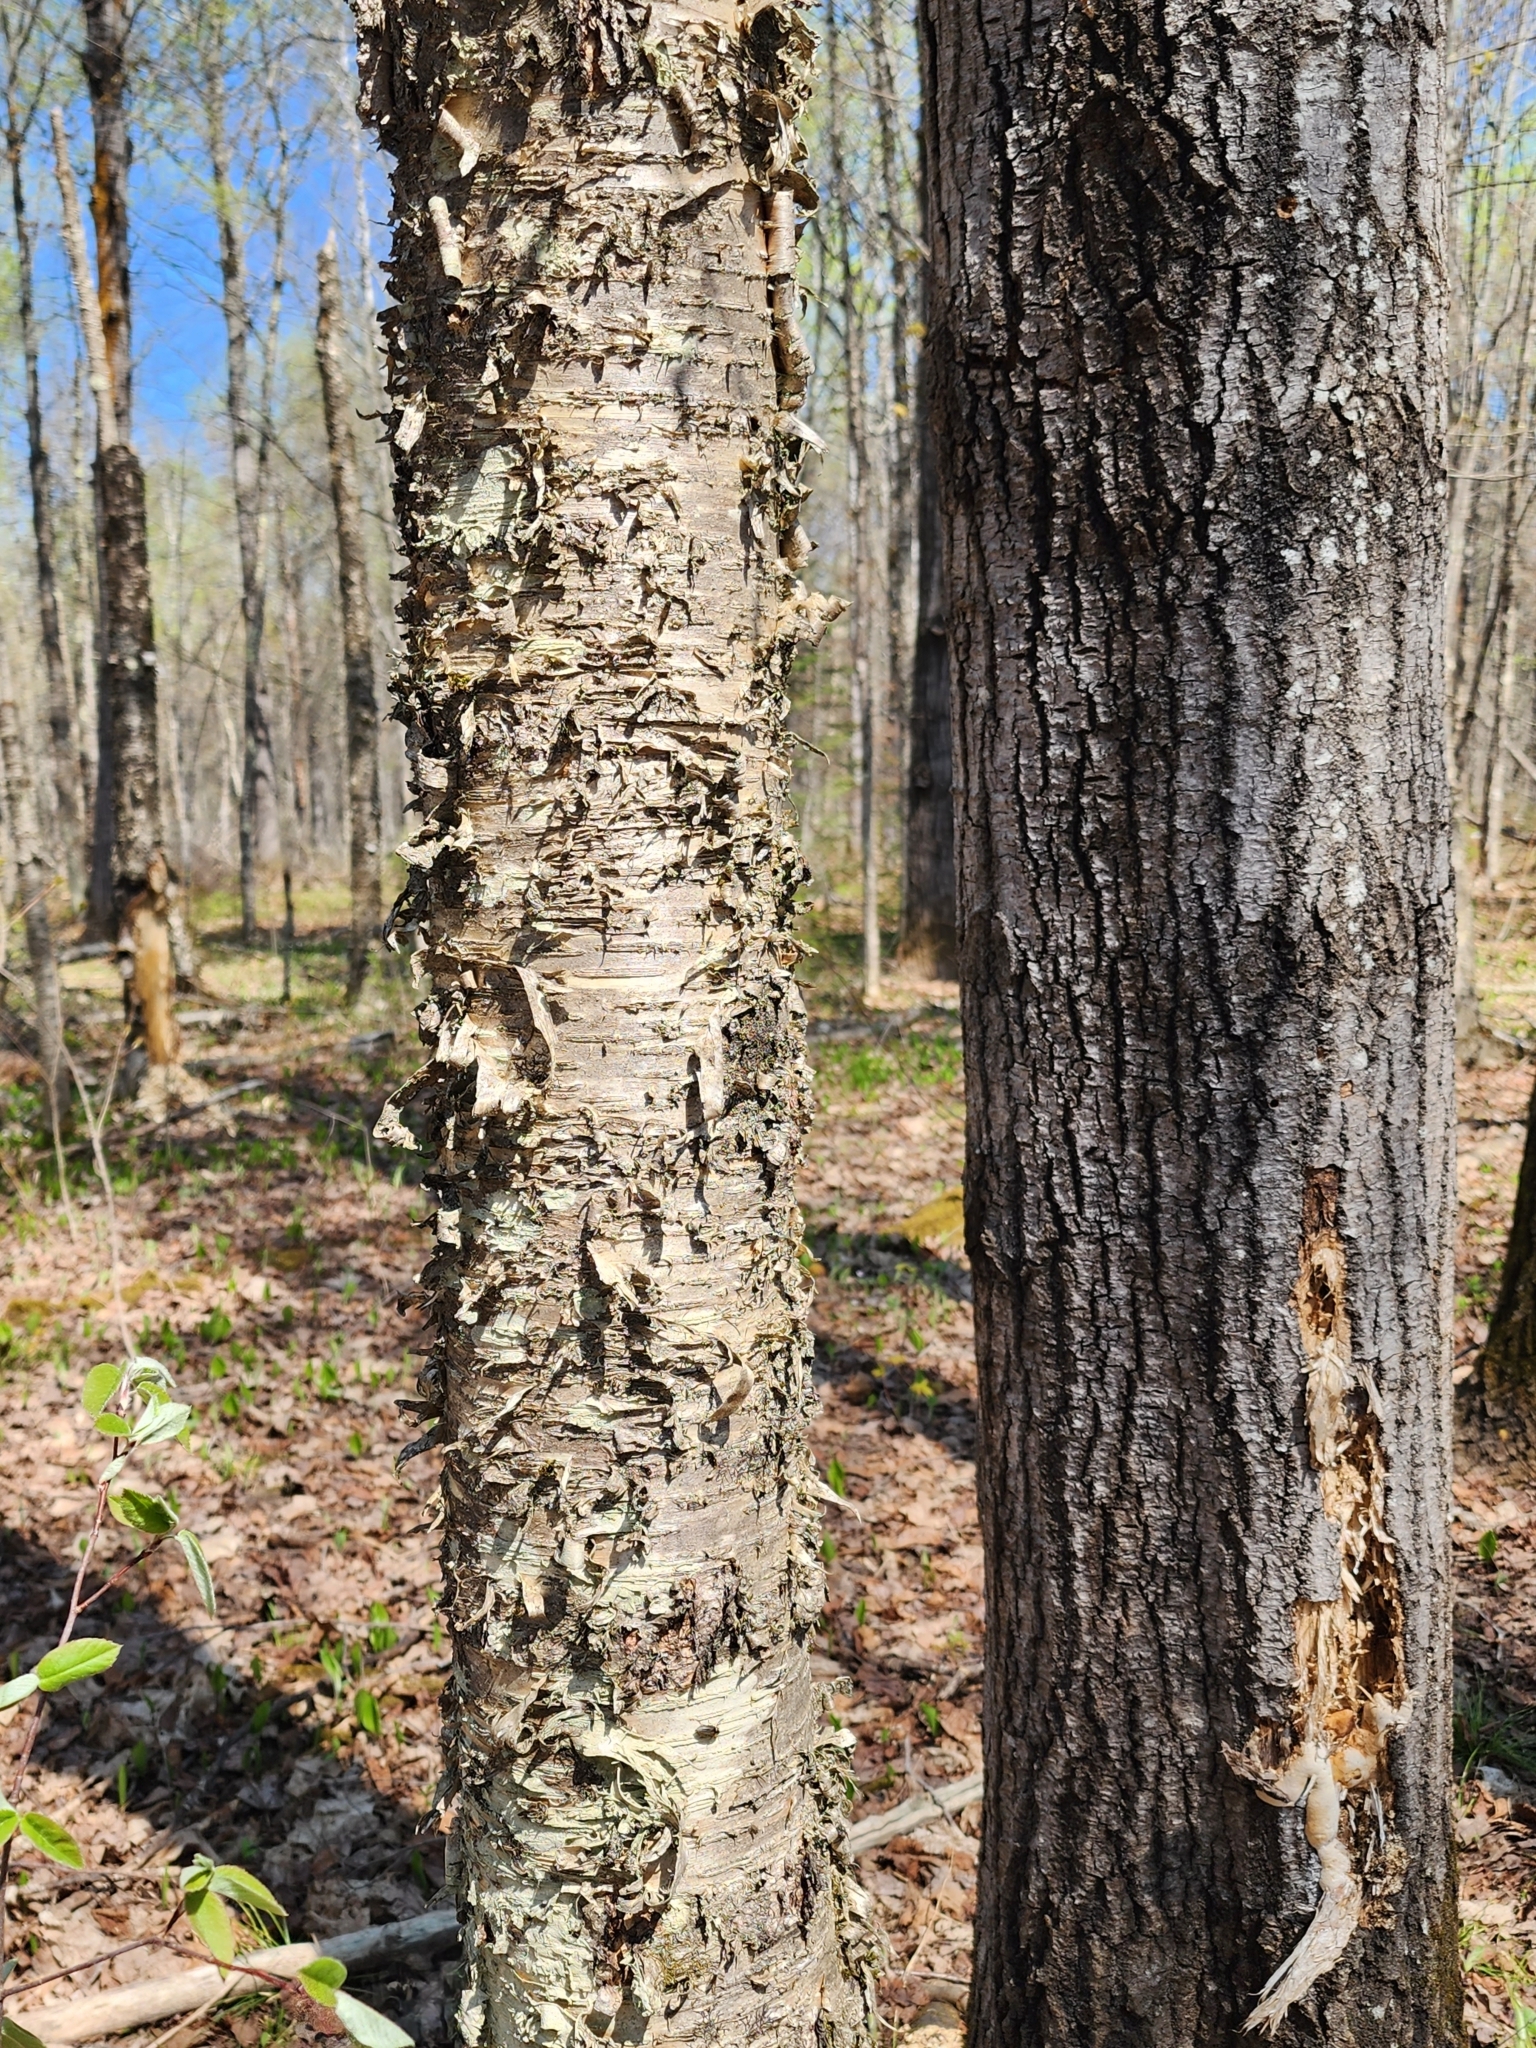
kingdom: Plantae
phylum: Tracheophyta
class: Magnoliopsida
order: Fagales
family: Betulaceae
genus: Betula
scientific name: Betula alleghaniensis
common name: Yellow birch
